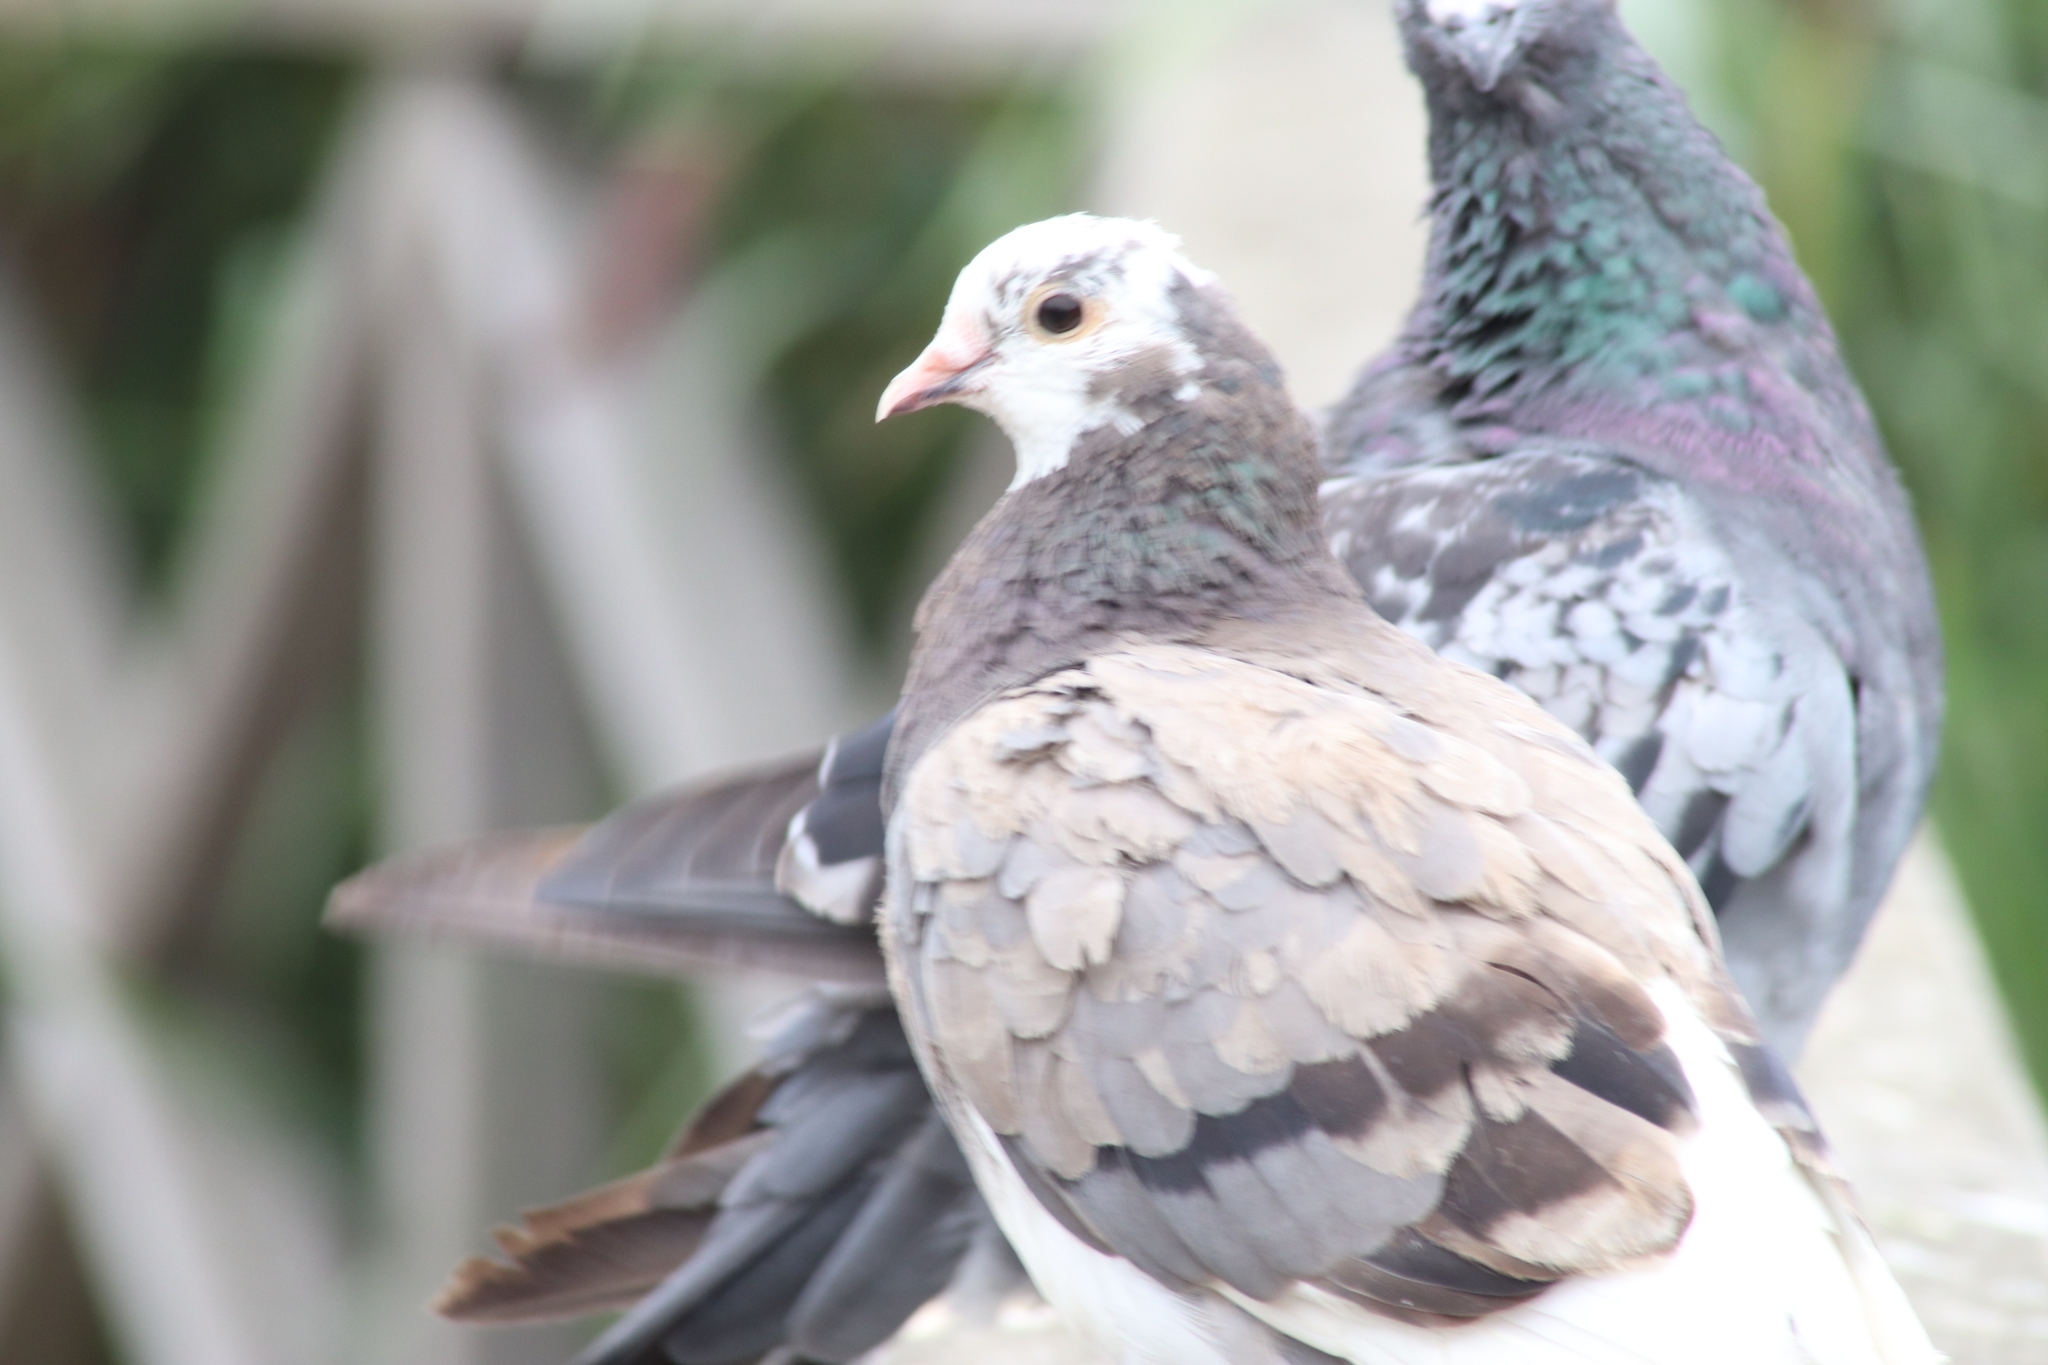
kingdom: Animalia
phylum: Chordata
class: Aves
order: Columbiformes
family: Columbidae
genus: Columba
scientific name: Columba livia
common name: Rock pigeon
